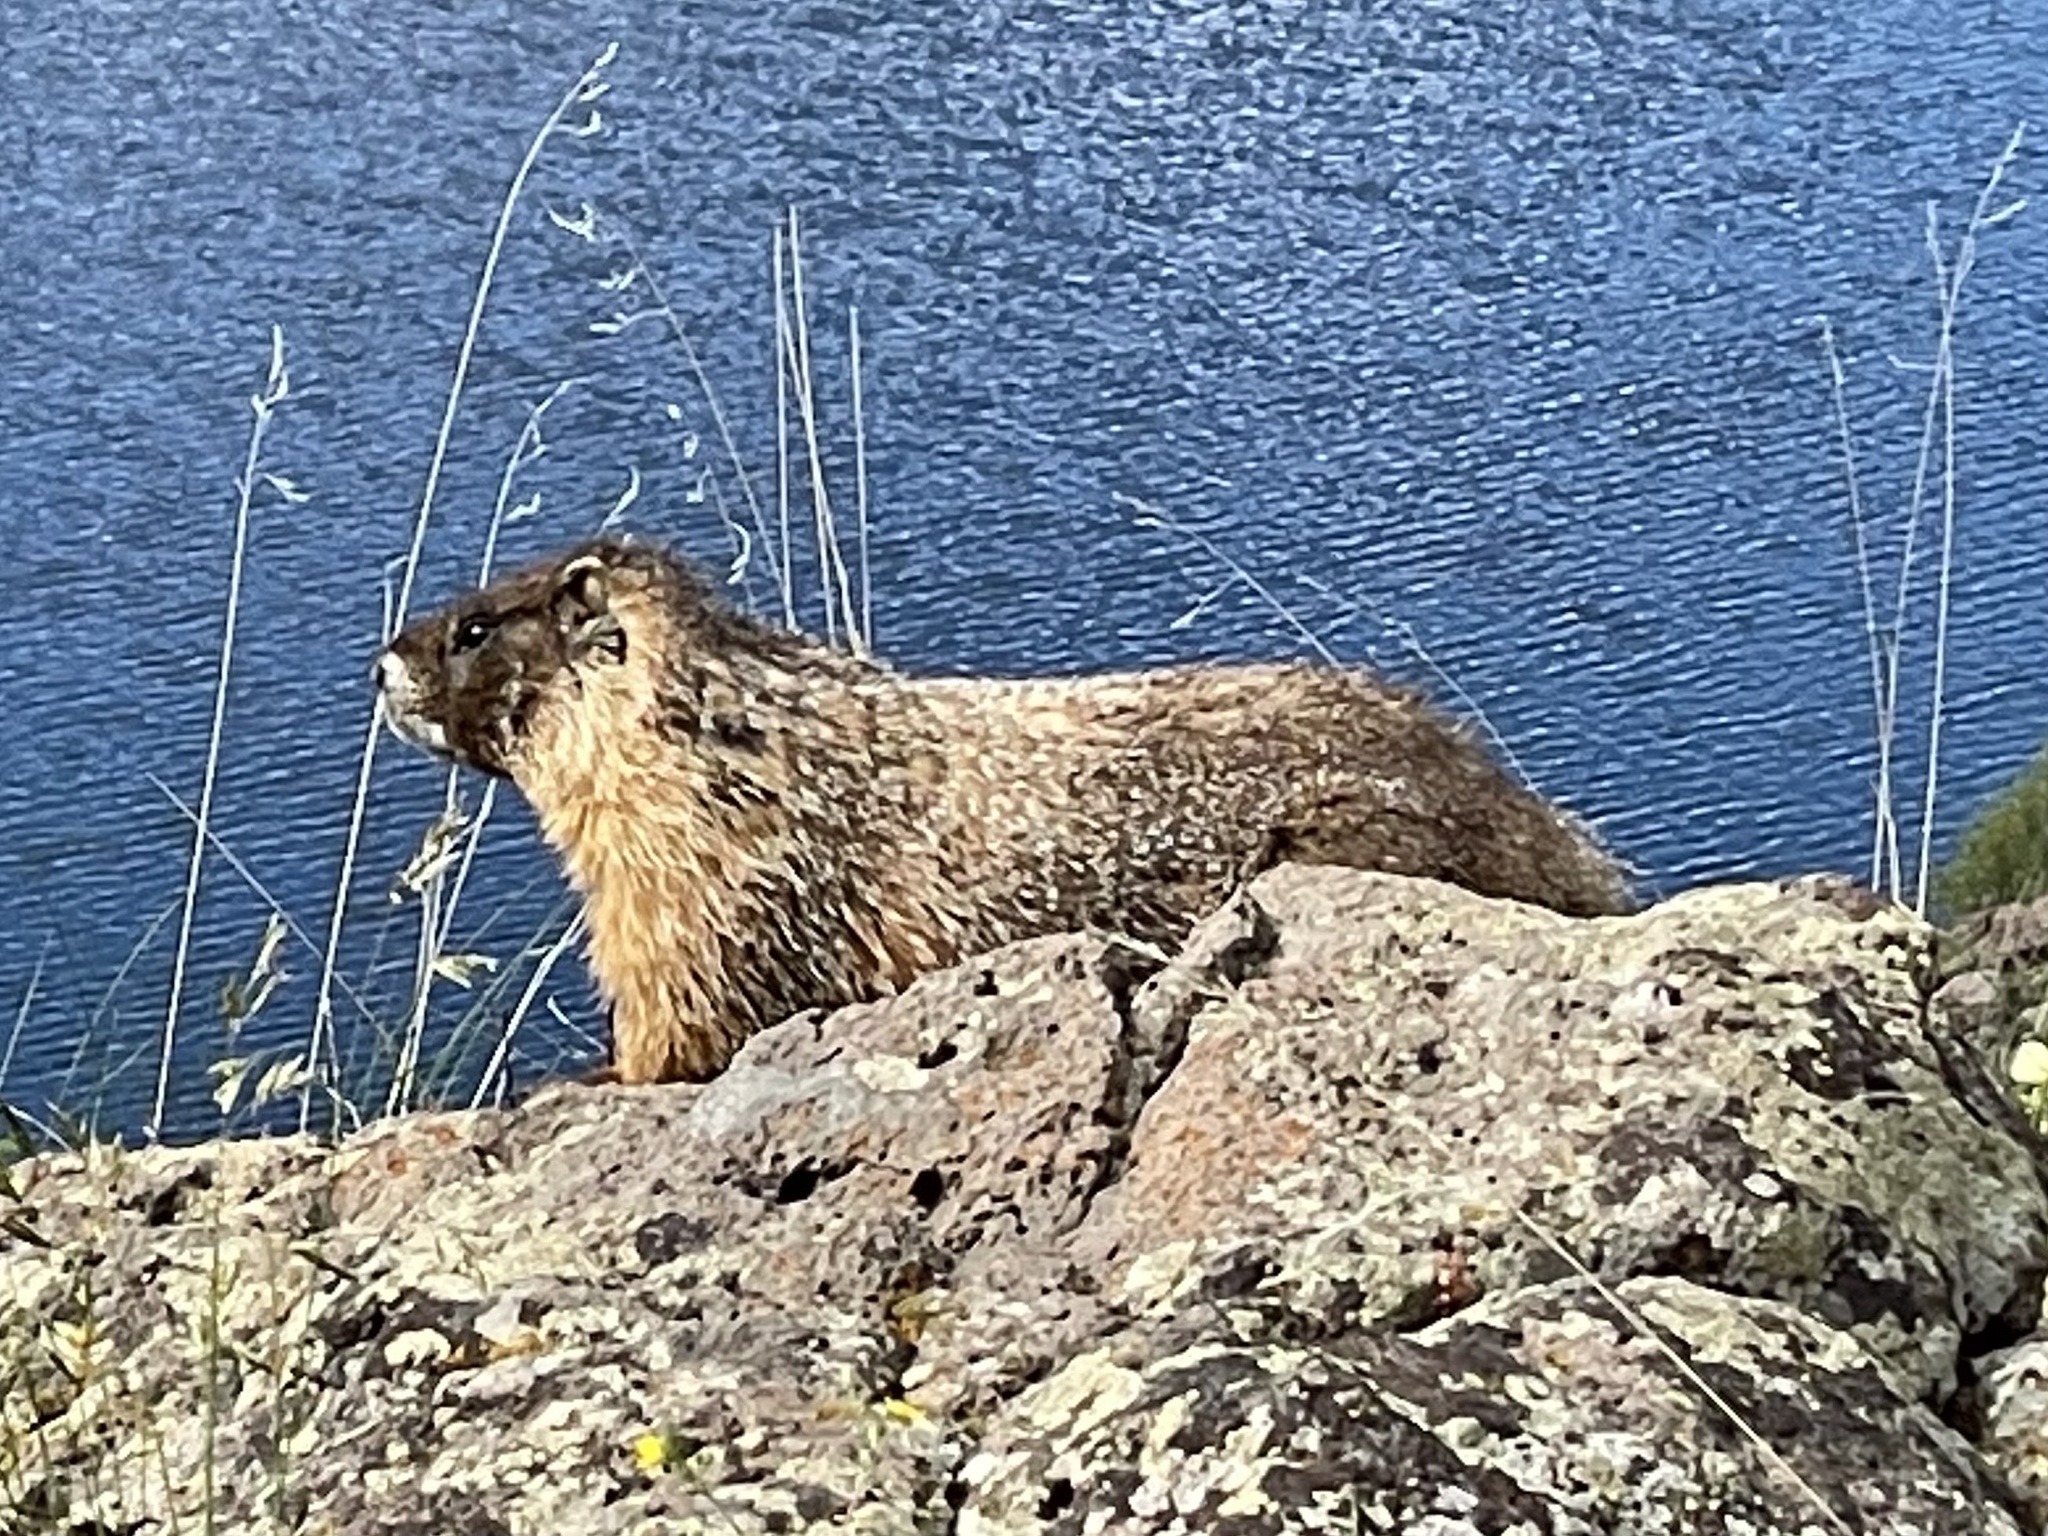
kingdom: Animalia
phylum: Chordata
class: Mammalia
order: Rodentia
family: Sciuridae
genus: Marmota
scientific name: Marmota flaviventris
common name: Yellow-bellied marmot
